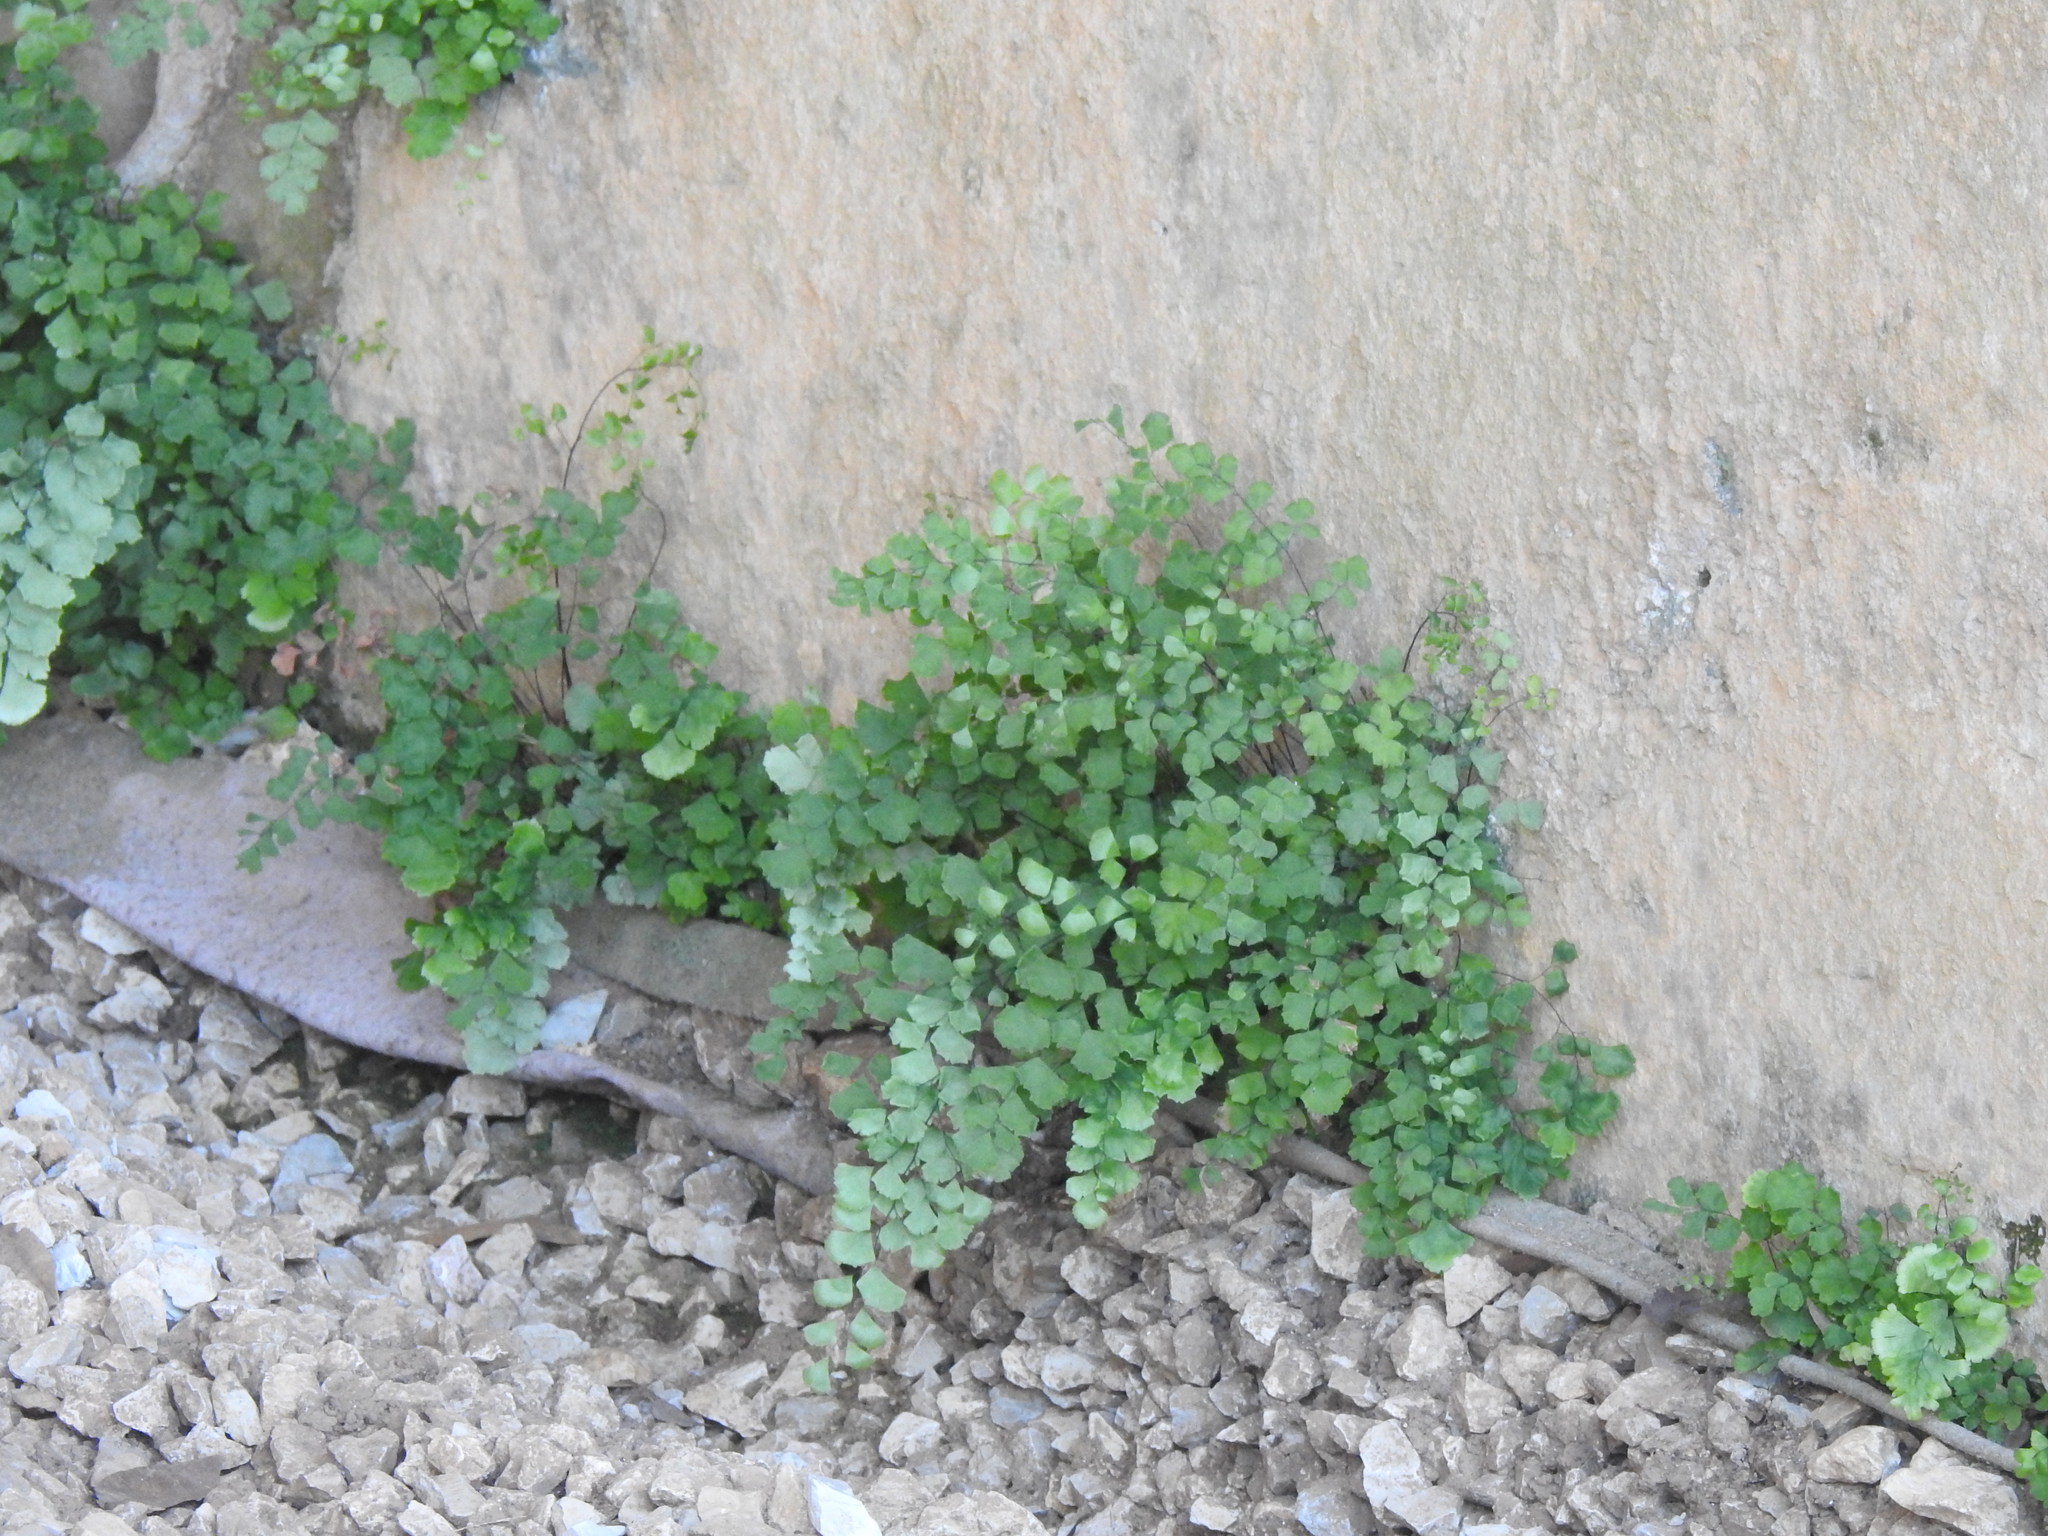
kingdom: Plantae
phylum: Tracheophyta
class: Polypodiopsida
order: Polypodiales
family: Pteridaceae
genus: Adiantum
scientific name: Adiantum capillus-veneris
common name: Maidenhair fern
